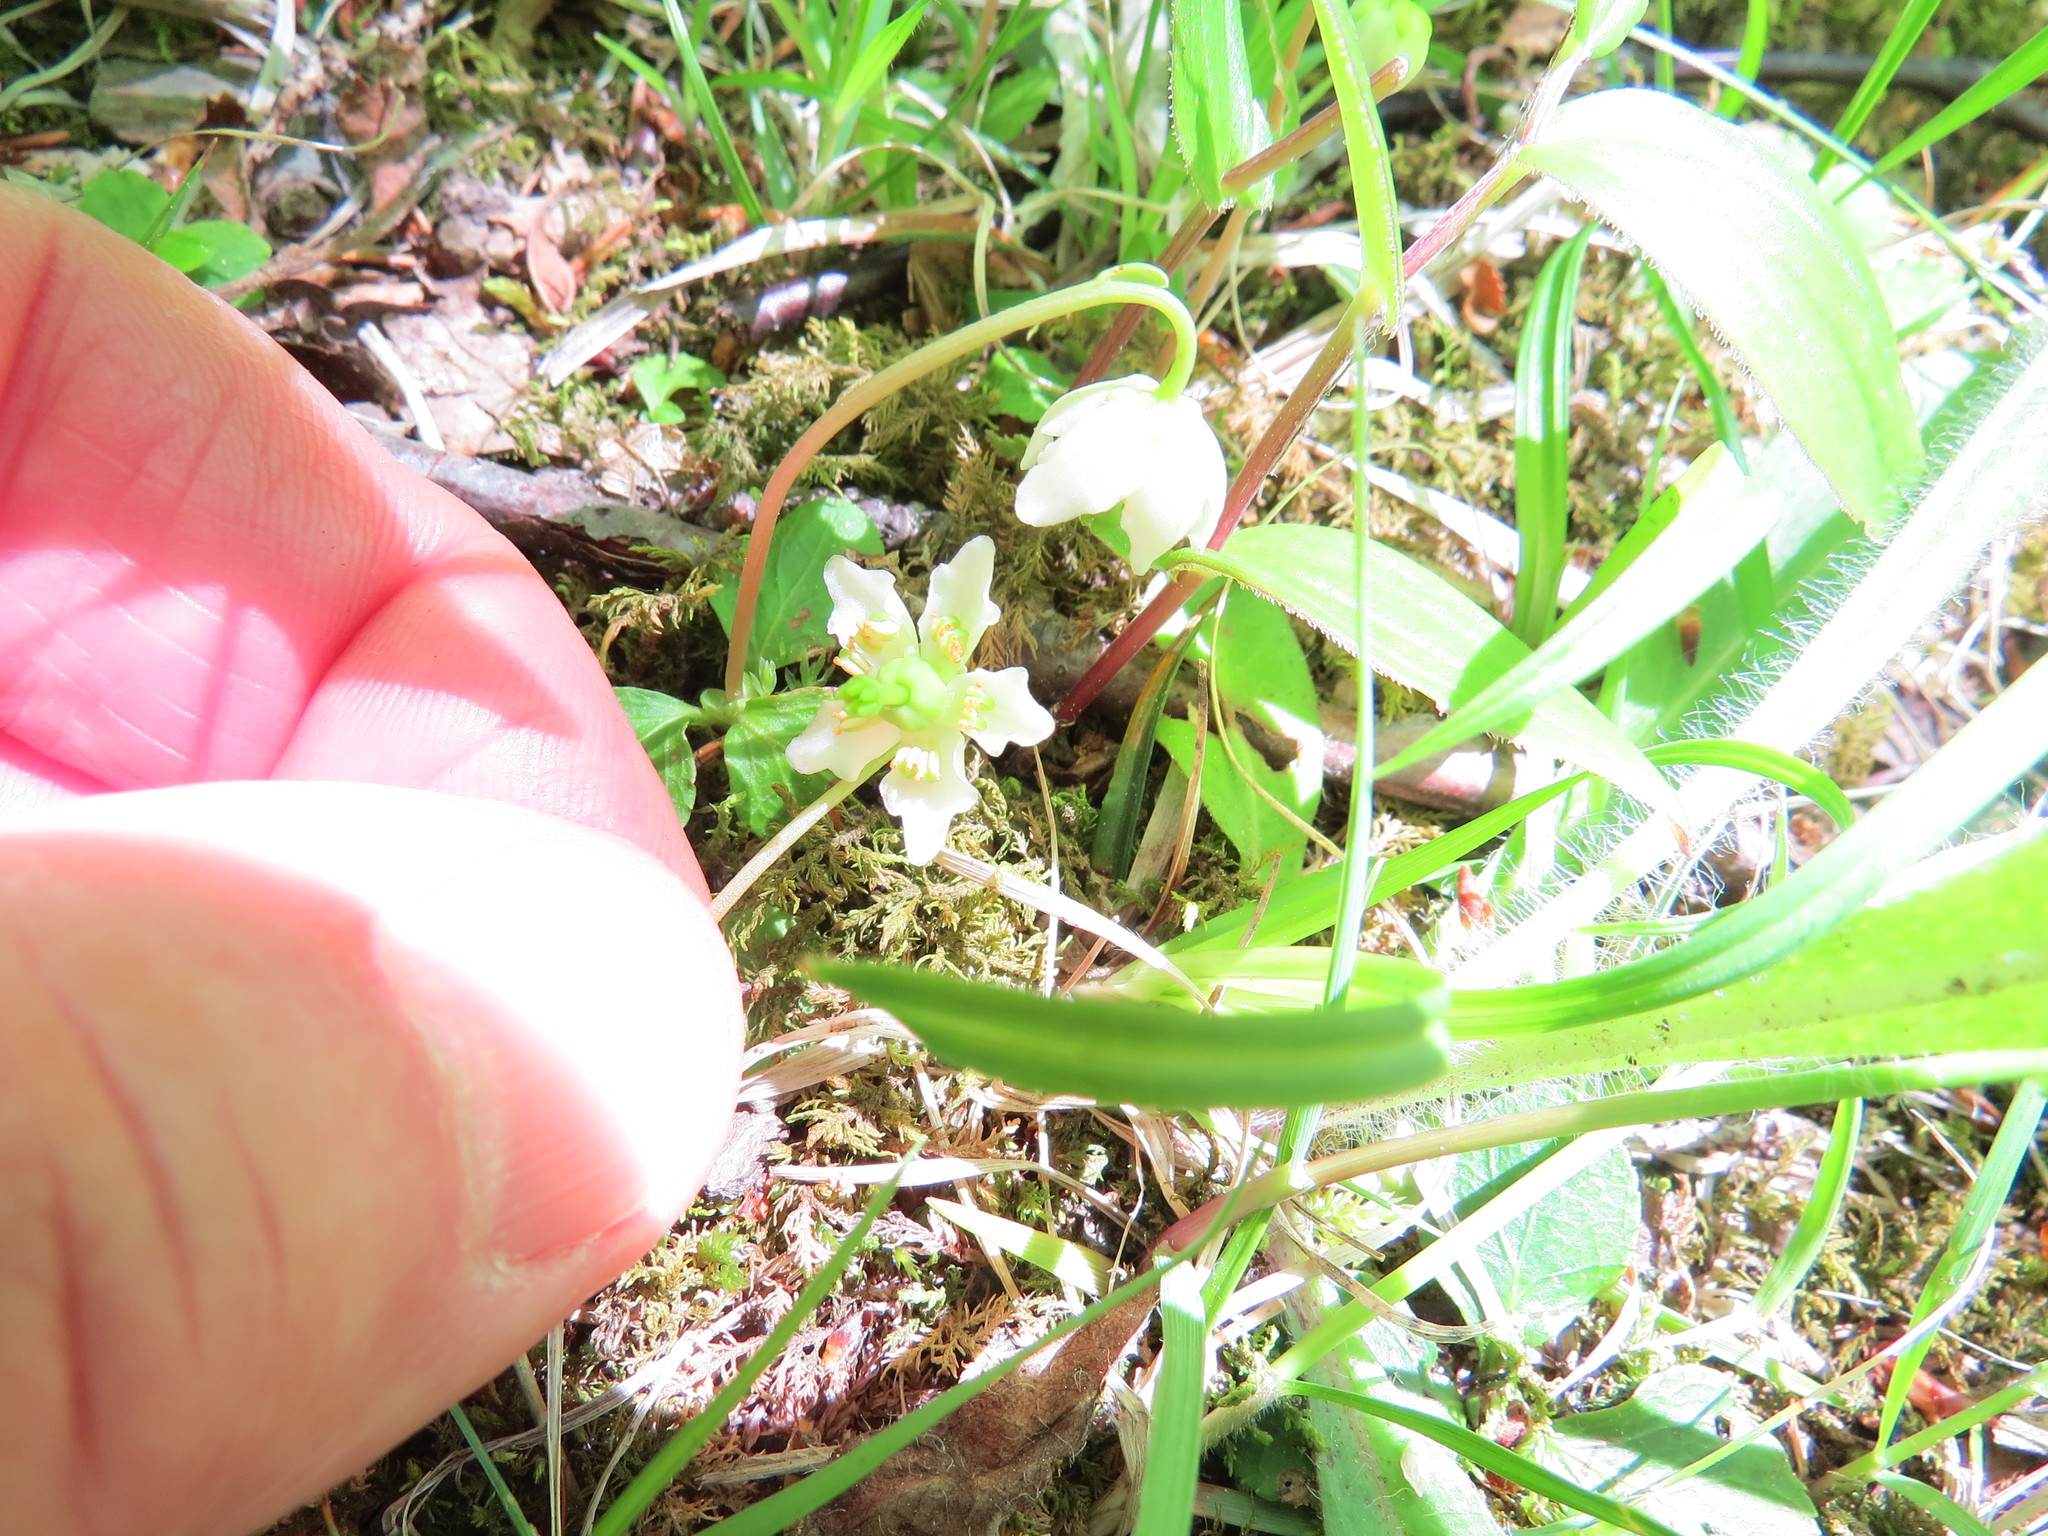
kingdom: Plantae
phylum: Tracheophyta
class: Magnoliopsida
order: Ericales
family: Ericaceae
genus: Moneses
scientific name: Moneses uniflora
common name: One-flowered wintergreen
